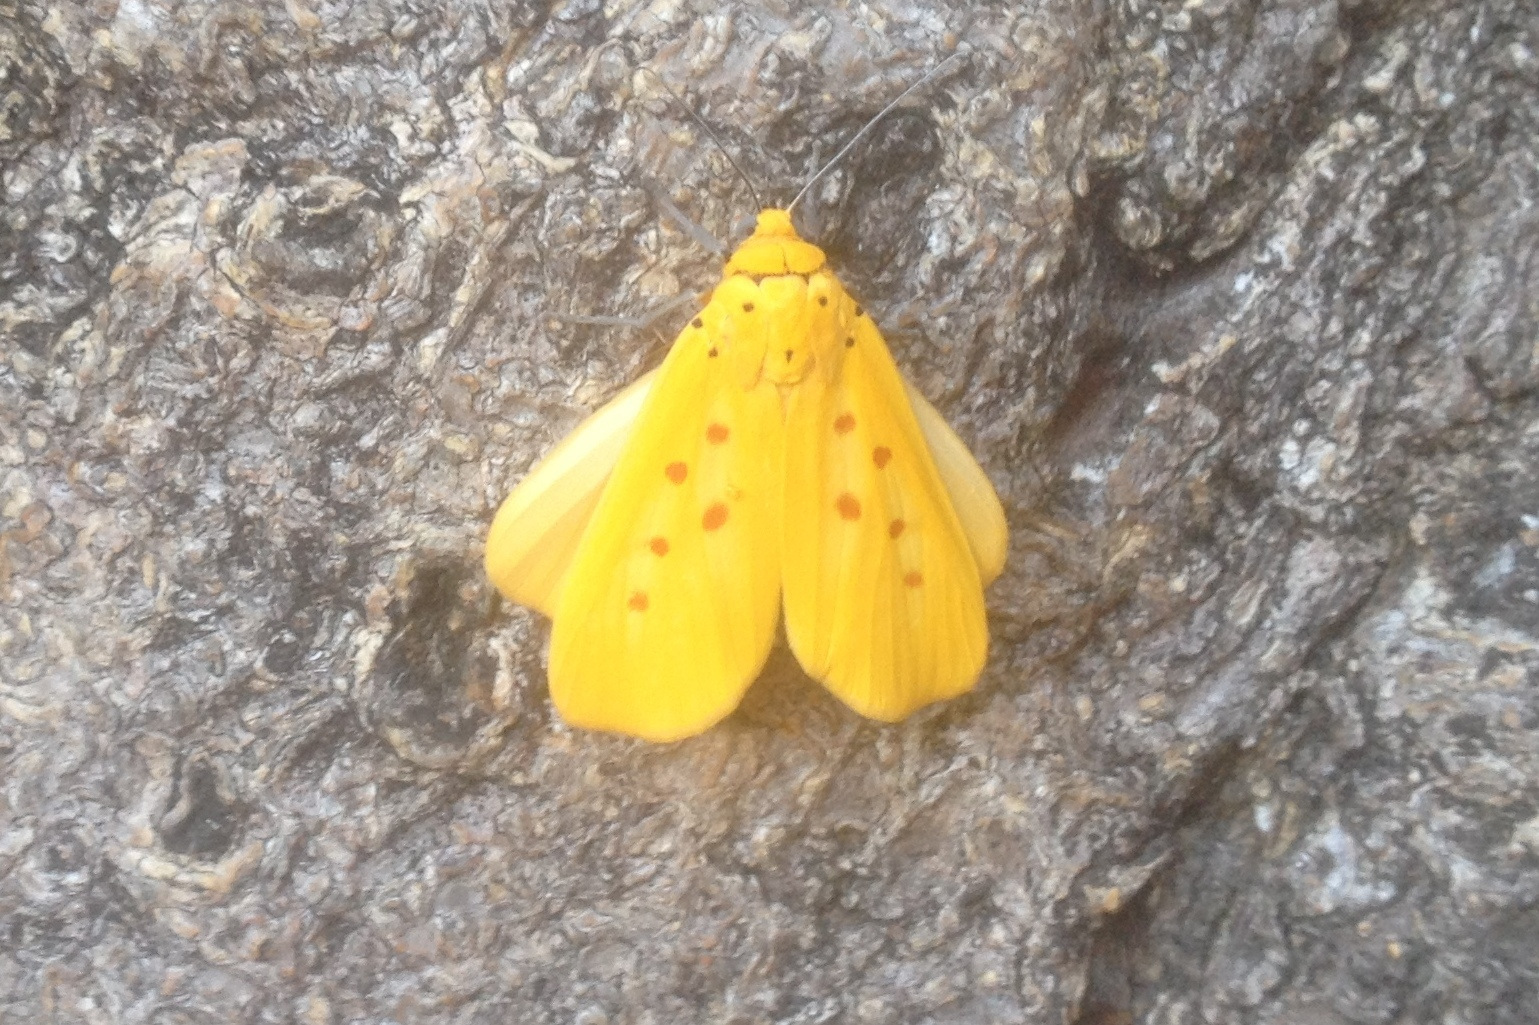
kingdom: Animalia
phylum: Arthropoda
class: Insecta
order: Lepidoptera
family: Noctuidae
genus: Agape
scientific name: Agape chloropyga
